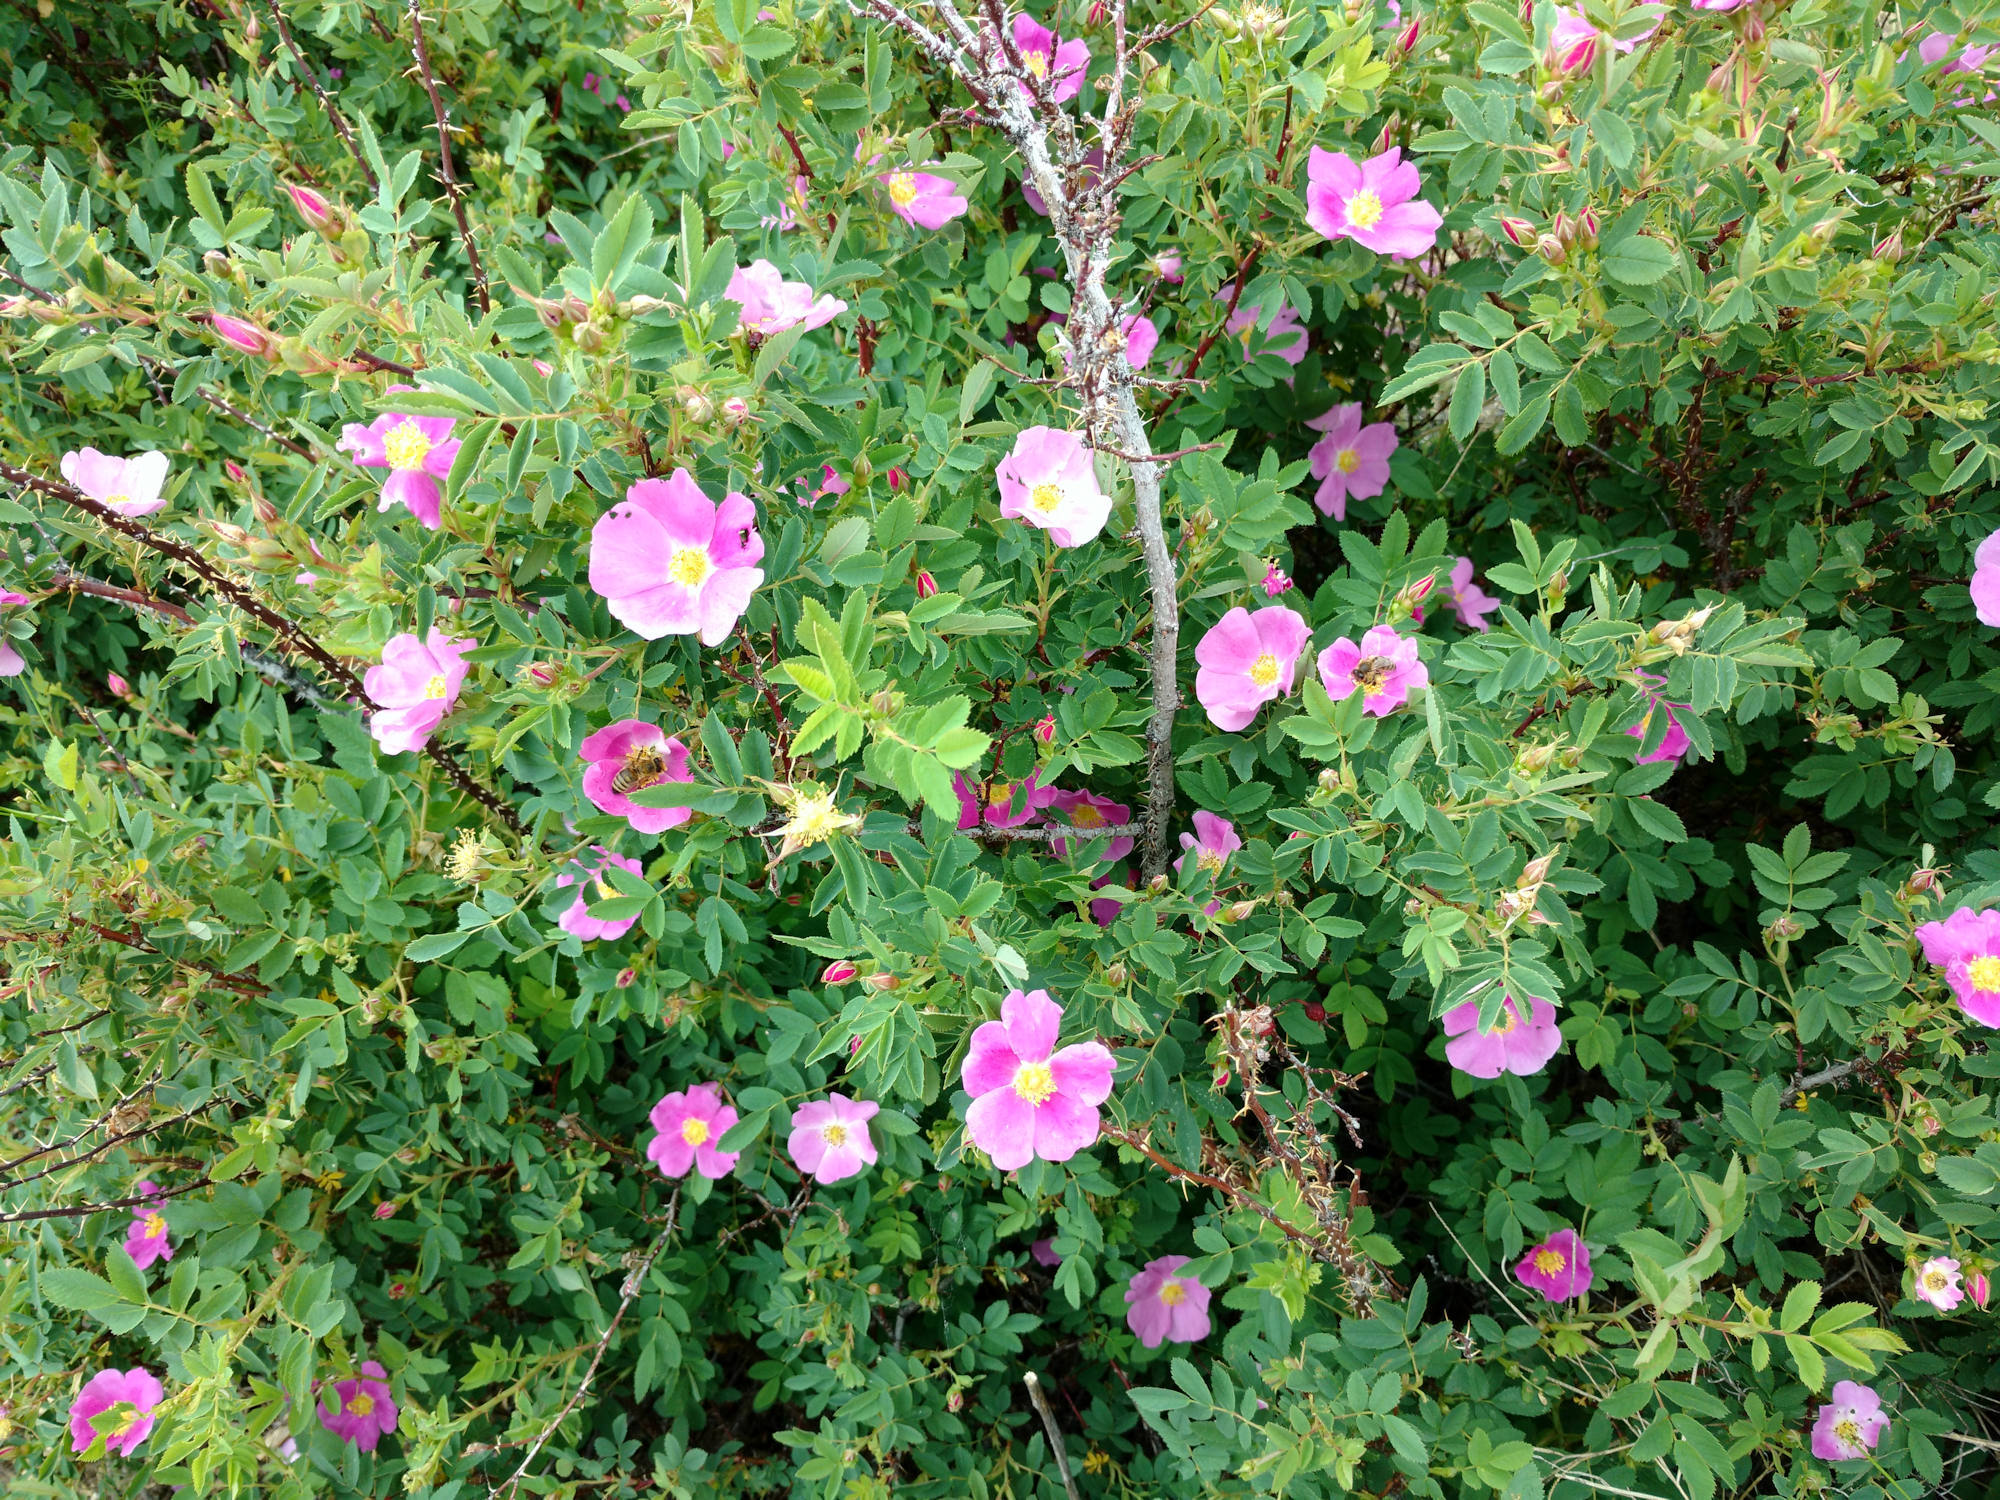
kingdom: Plantae
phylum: Tracheophyta
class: Magnoliopsida
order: Rosales
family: Rosaceae
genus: Rosa
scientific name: Rosa woodsii
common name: Woods's rose
